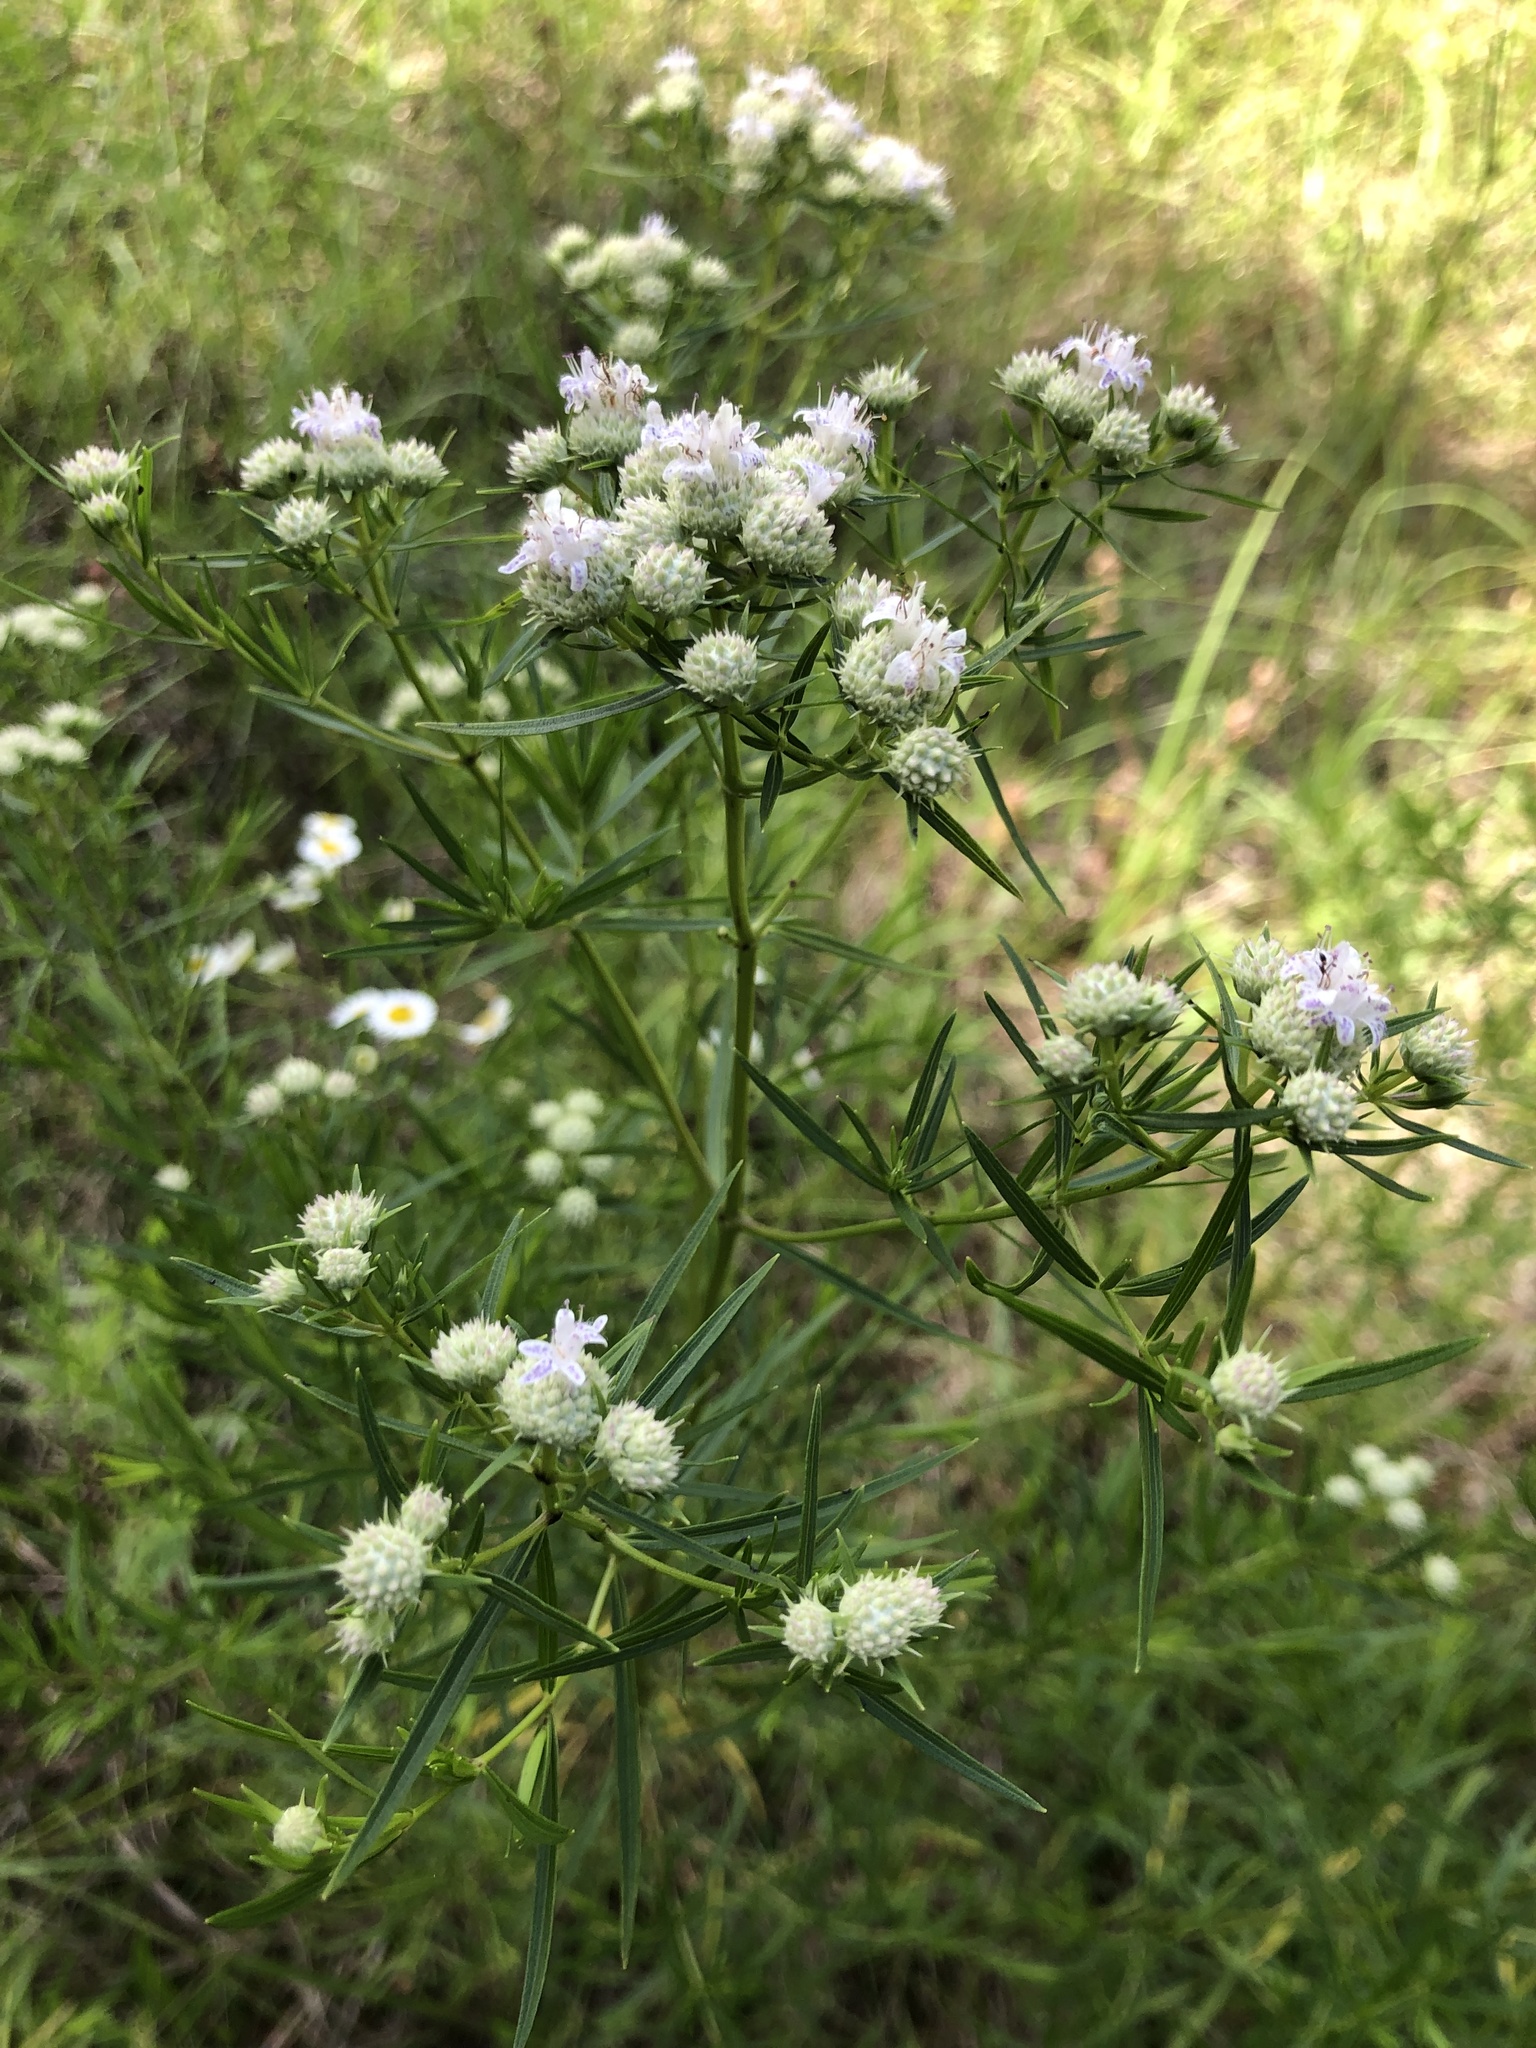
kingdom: Plantae
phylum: Tracheophyta
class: Magnoliopsida
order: Lamiales
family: Lamiaceae
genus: Pycnanthemum
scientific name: Pycnanthemum tenuifolium
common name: Narrow-leaf mountain-mint
